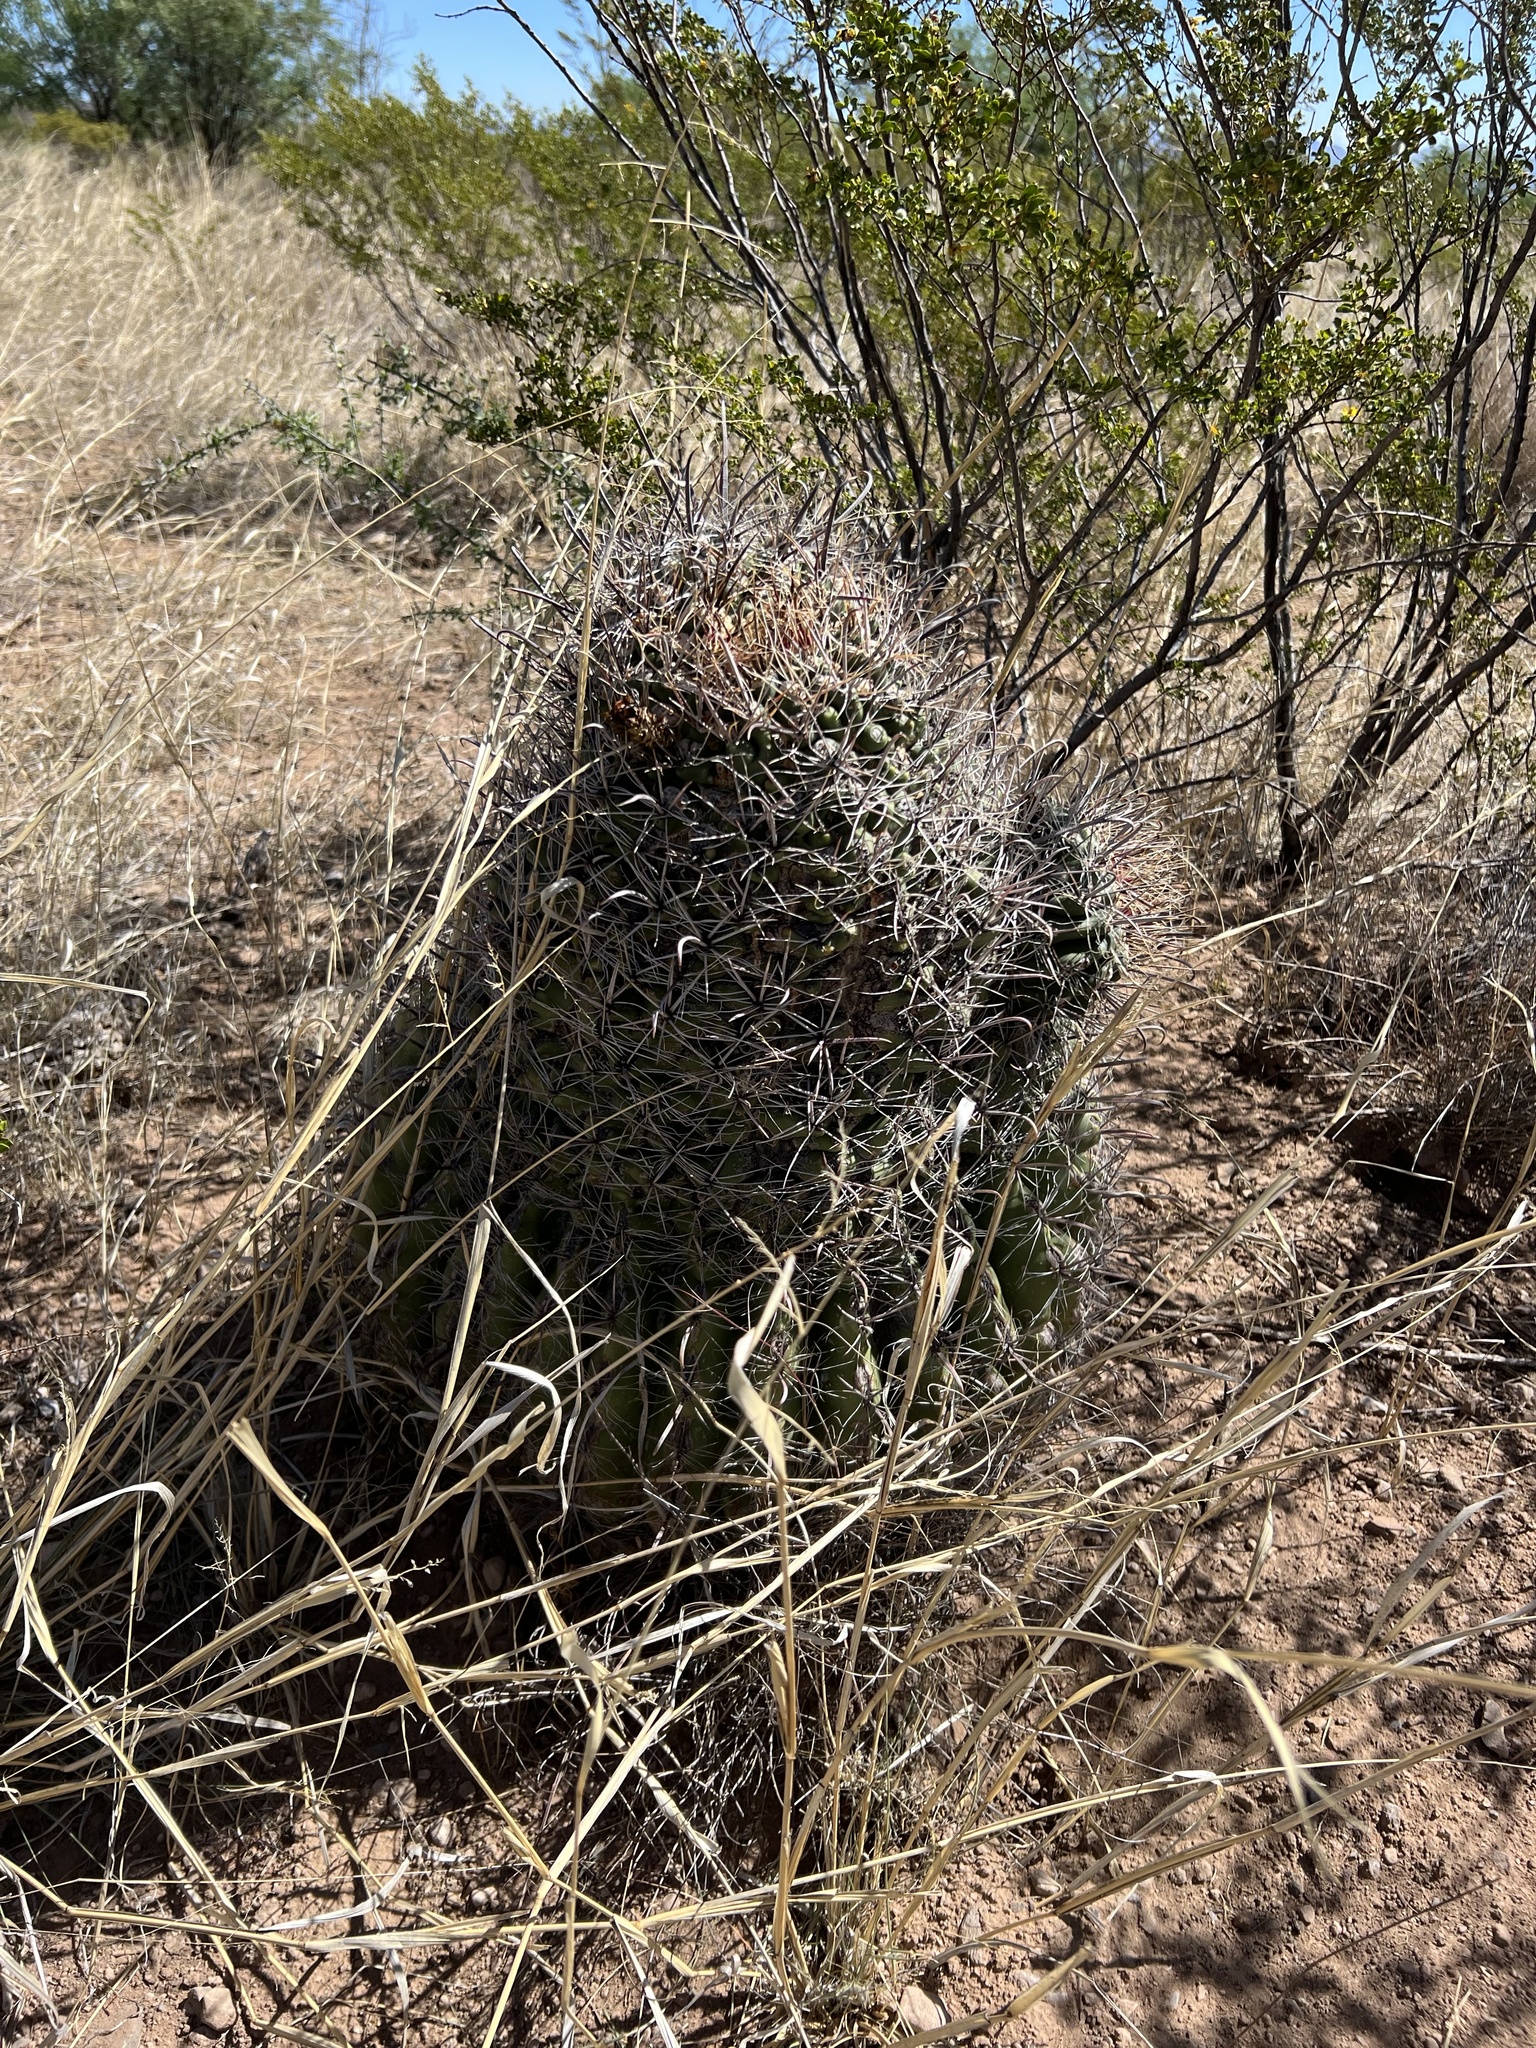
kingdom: Plantae
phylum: Tracheophyta
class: Magnoliopsida
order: Caryophyllales
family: Cactaceae
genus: Ferocactus
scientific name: Ferocactus wislizeni
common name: Candy barrel cactus
